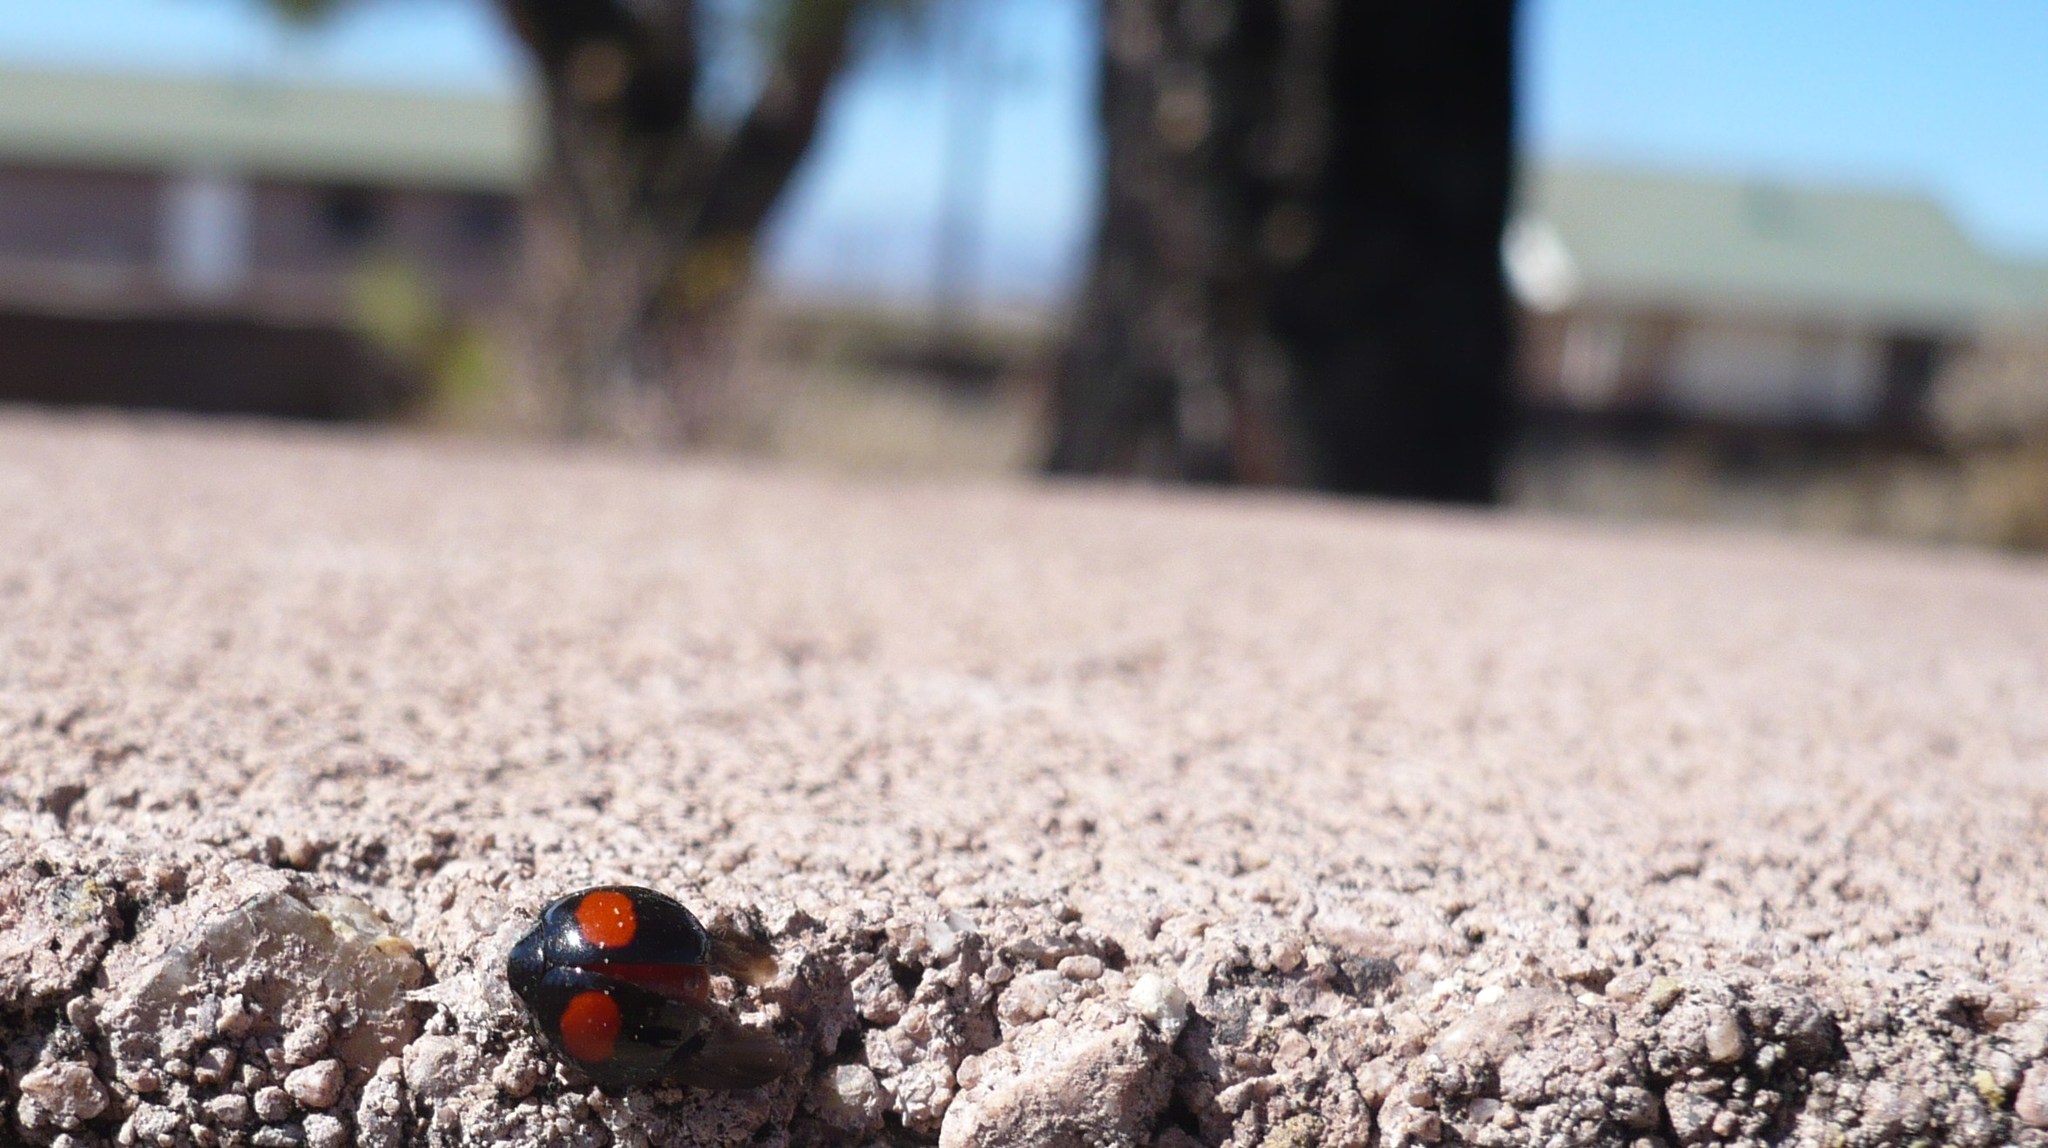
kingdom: Animalia
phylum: Arthropoda
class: Insecta
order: Coleoptera
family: Coccinellidae
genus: Chilocorus
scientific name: Chilocorus cacti
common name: Cactus lady beetle
